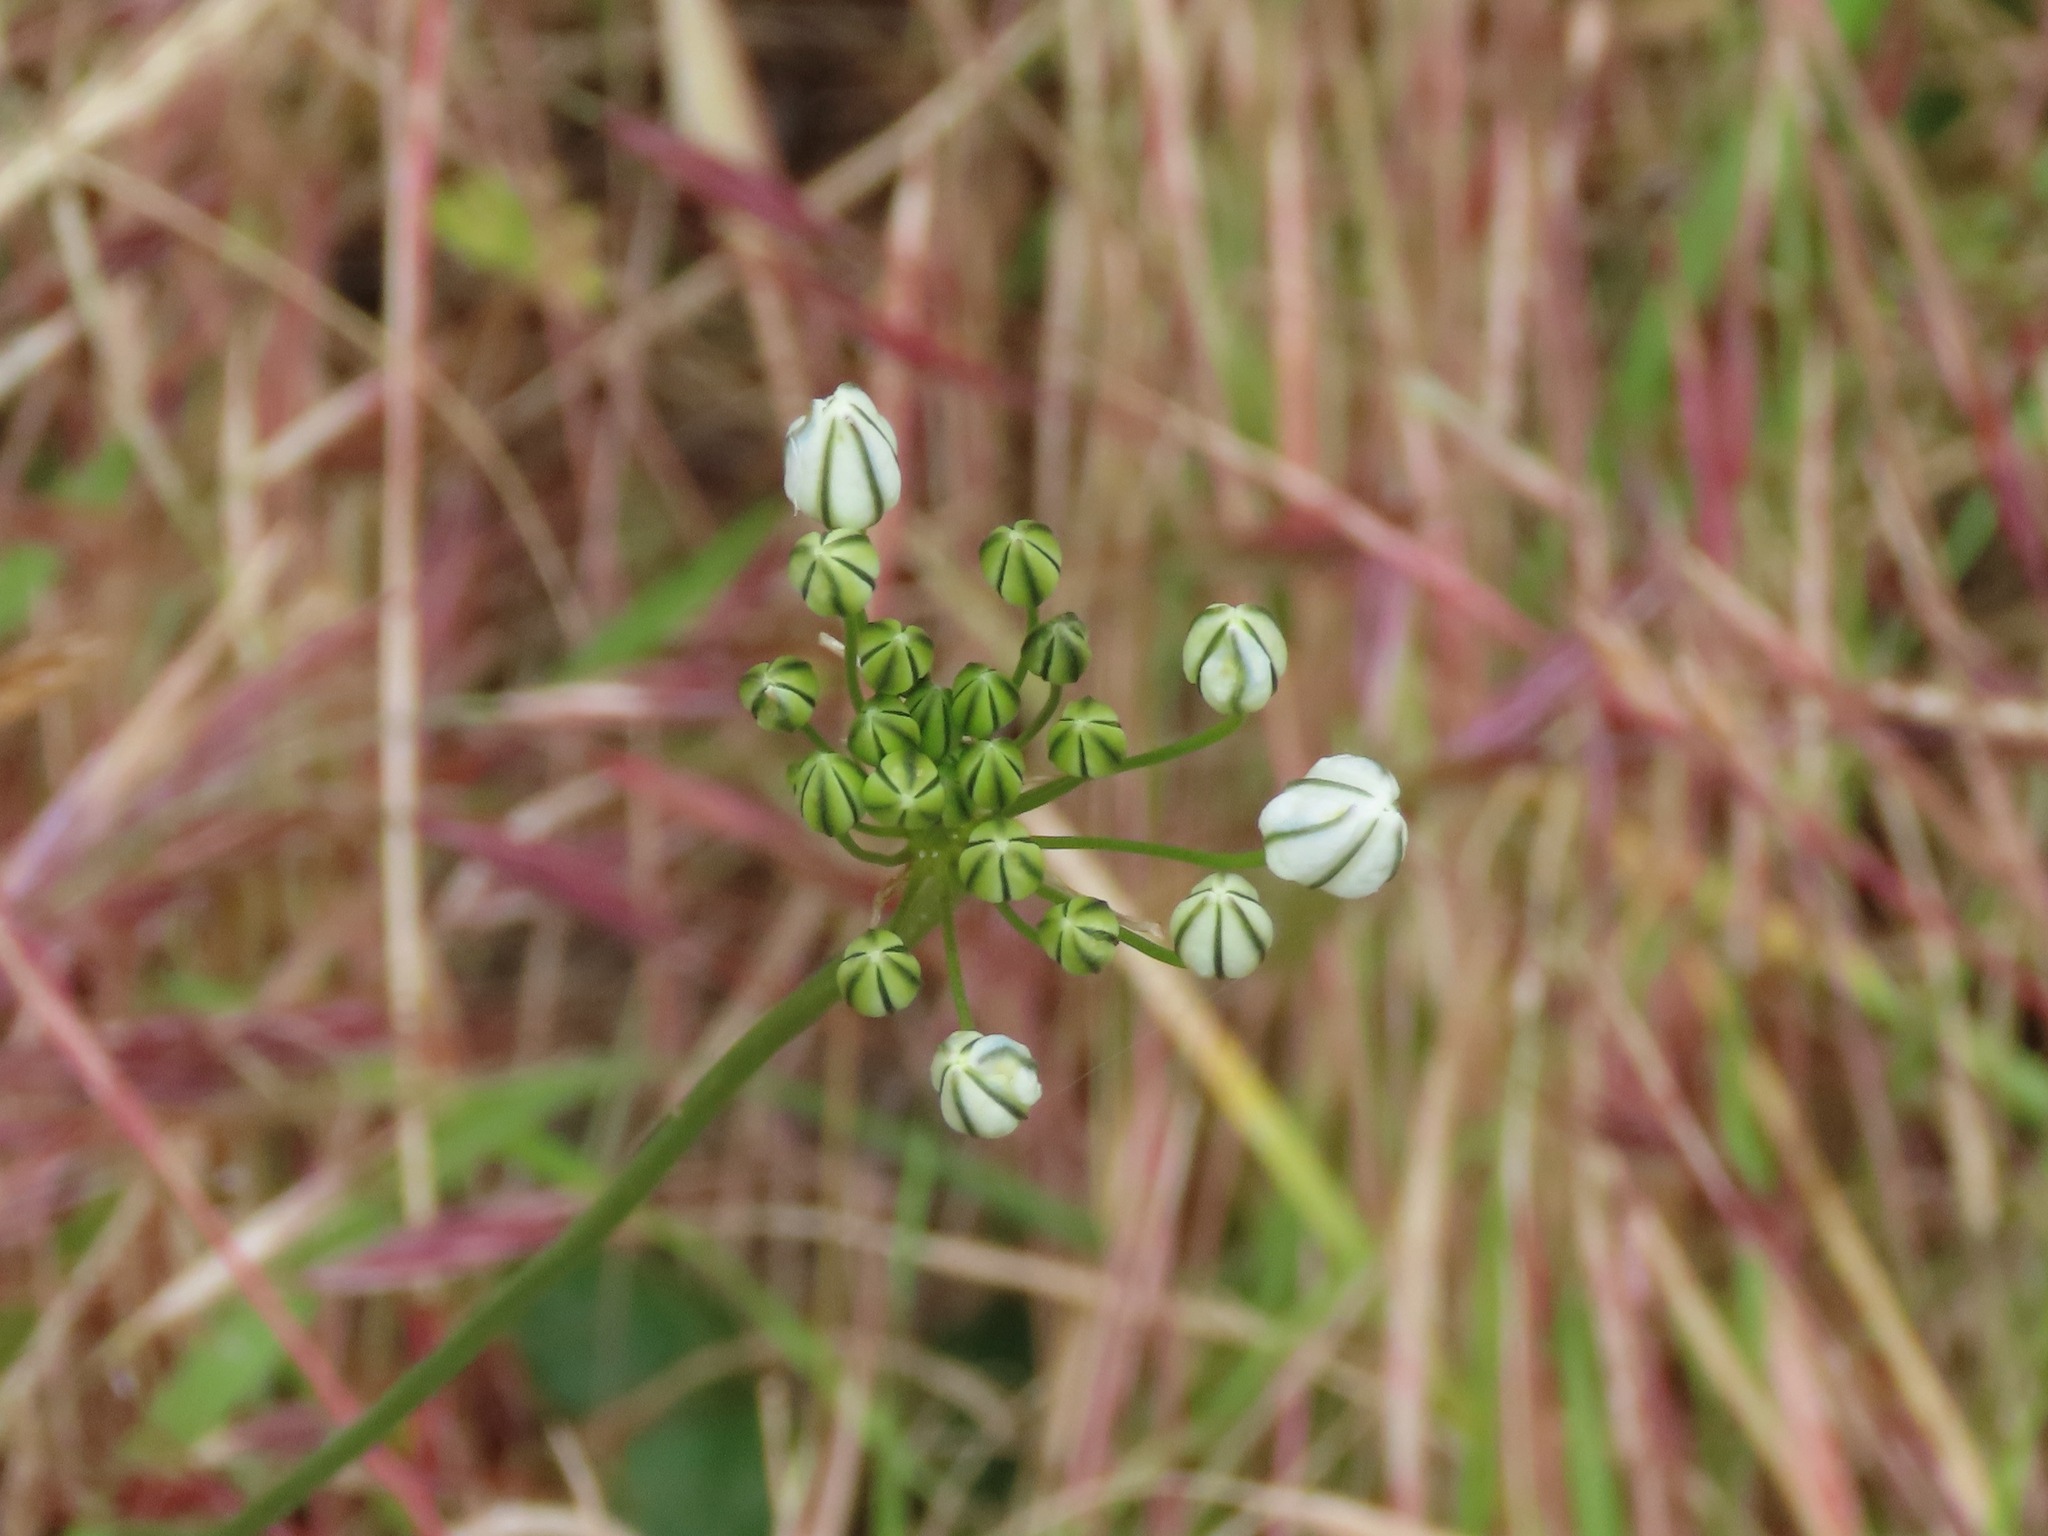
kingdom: Plantae
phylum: Tracheophyta
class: Liliopsida
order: Asparagales
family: Asparagaceae
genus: Triteleia
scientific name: Triteleia hyacinthina
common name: White brodiaea
